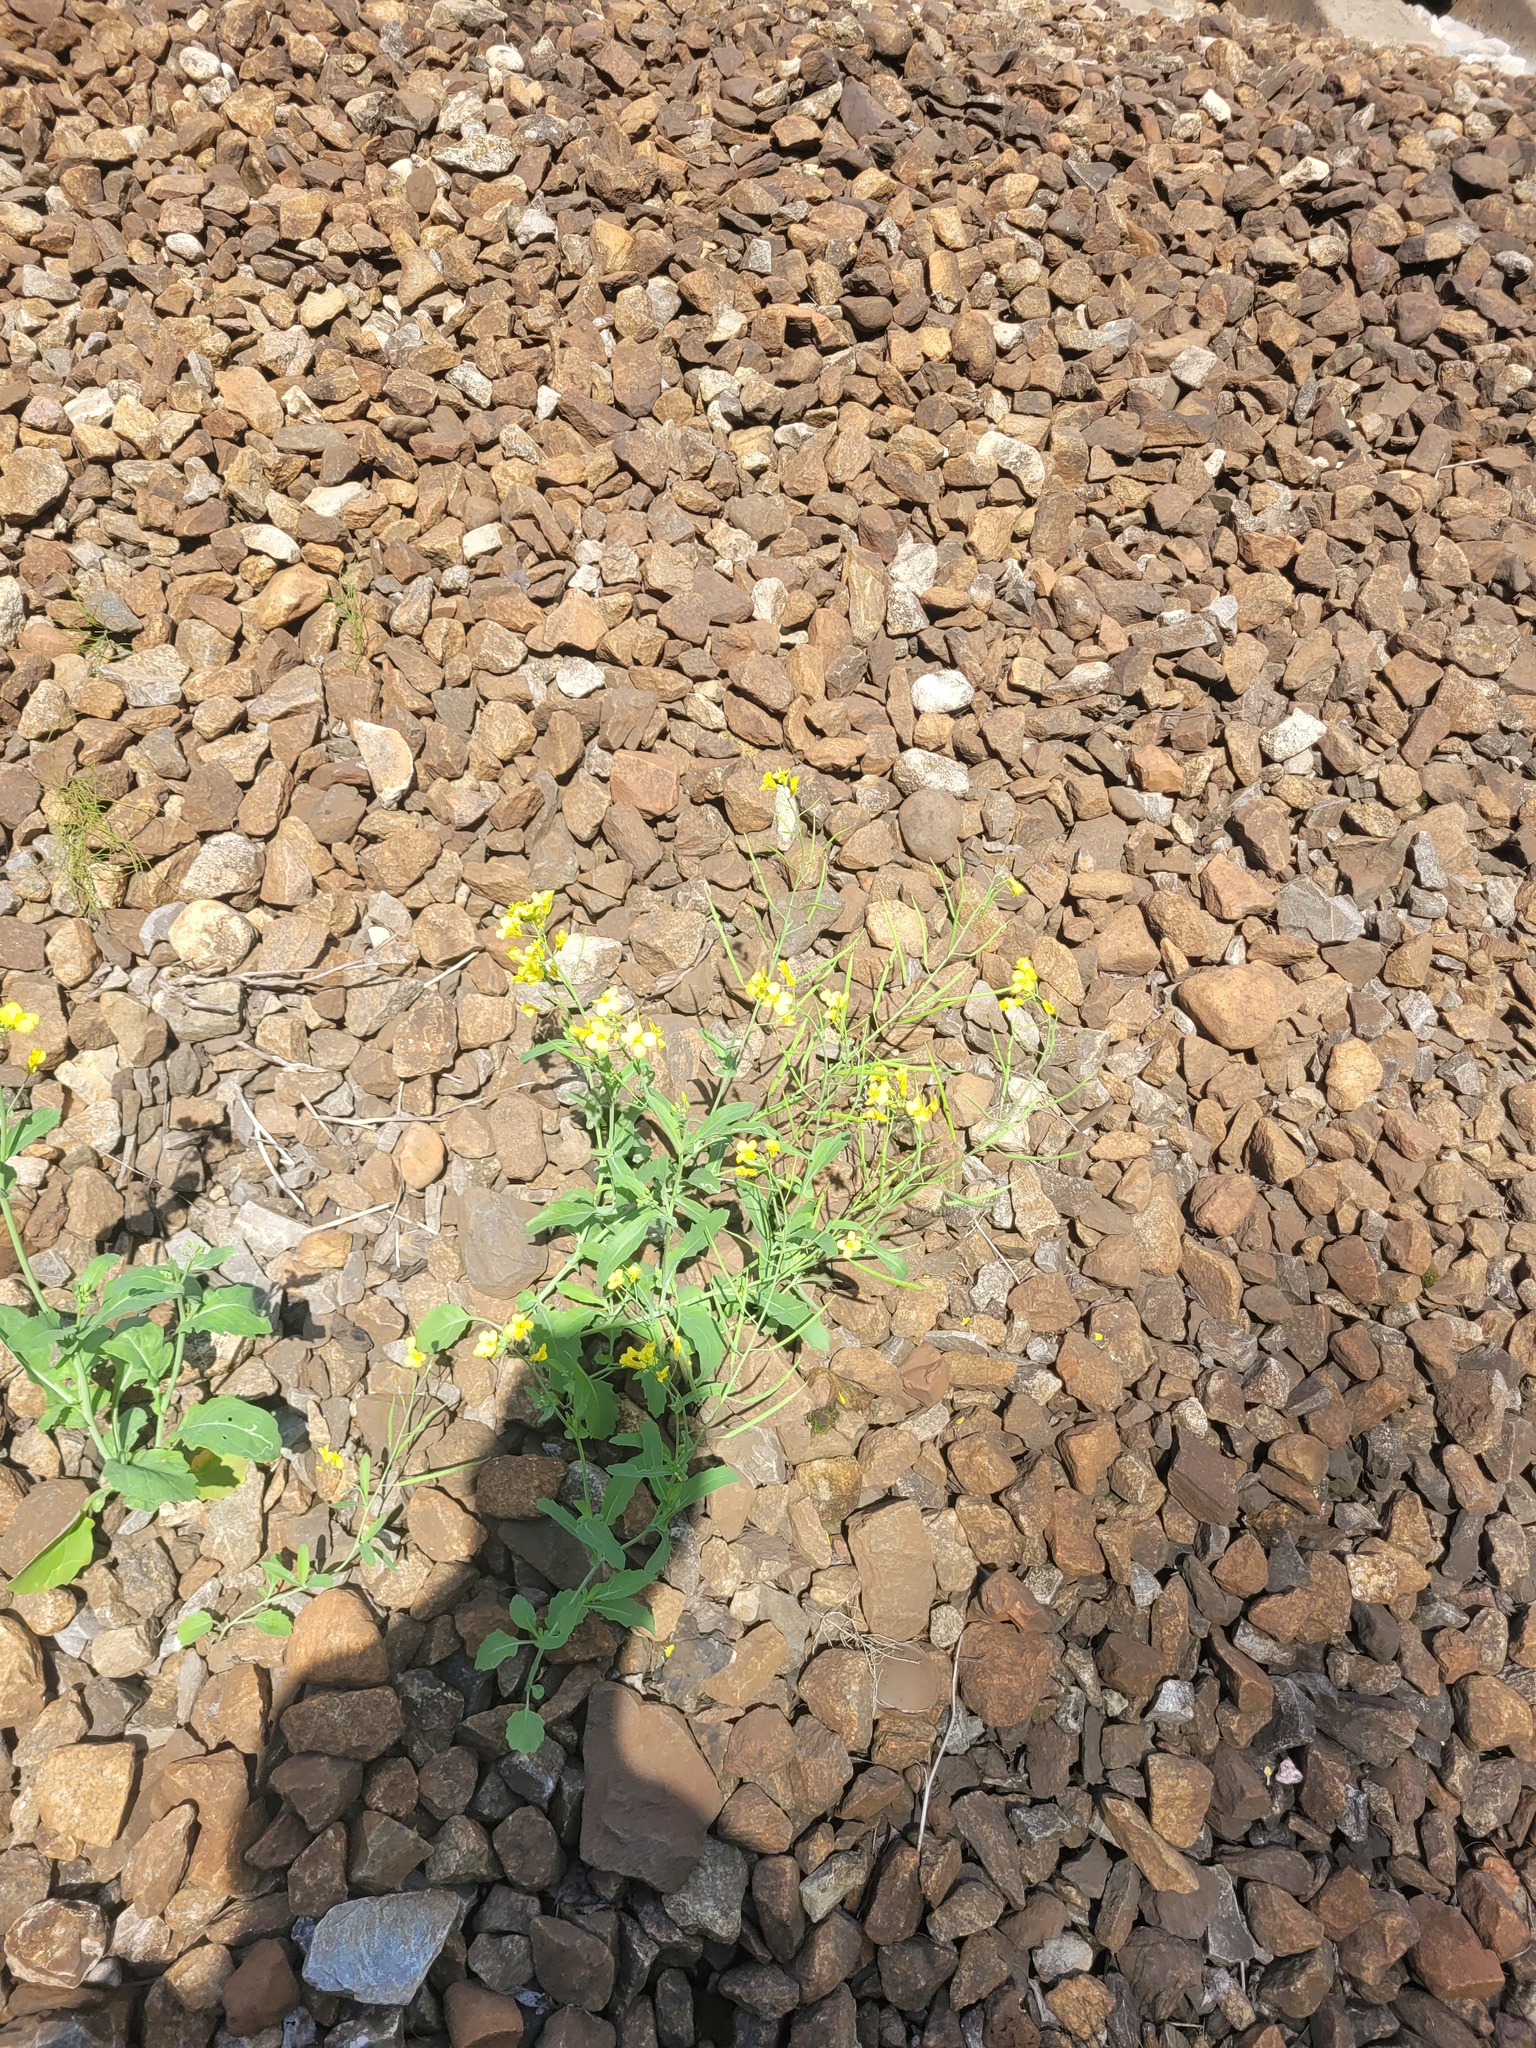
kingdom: Plantae
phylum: Tracheophyta
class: Magnoliopsida
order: Brassicales
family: Brassicaceae
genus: Brassica
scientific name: Brassica napus
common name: Rape
